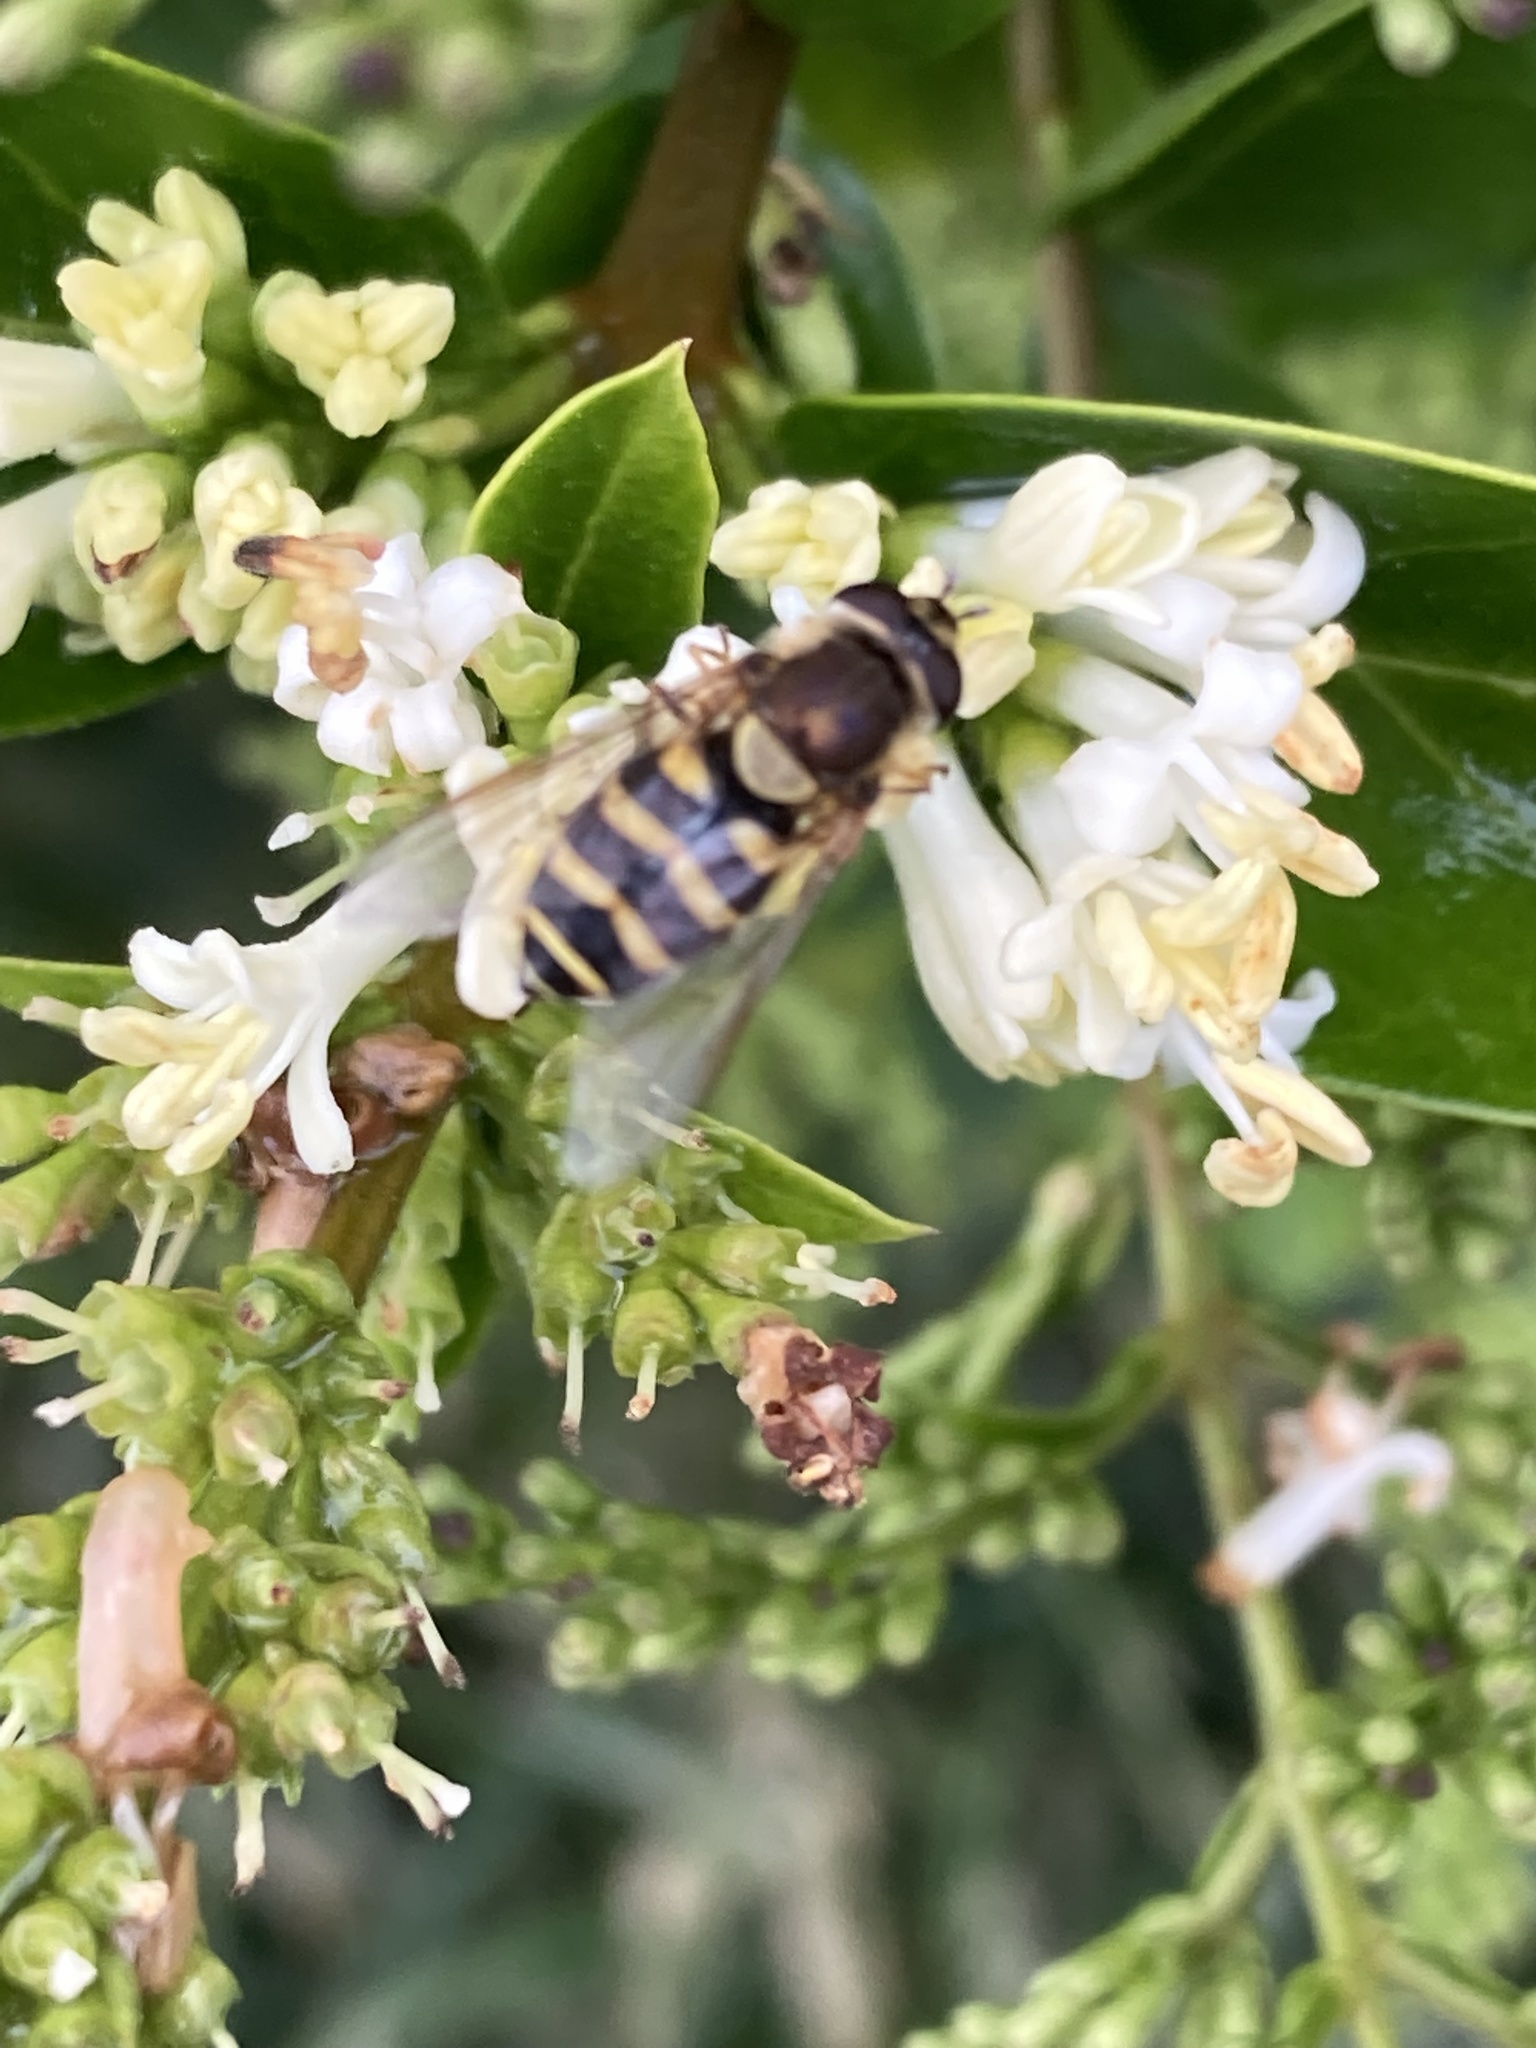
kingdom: Animalia
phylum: Arthropoda
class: Insecta
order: Diptera
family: Syrphidae
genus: Syrphus
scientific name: Syrphus
